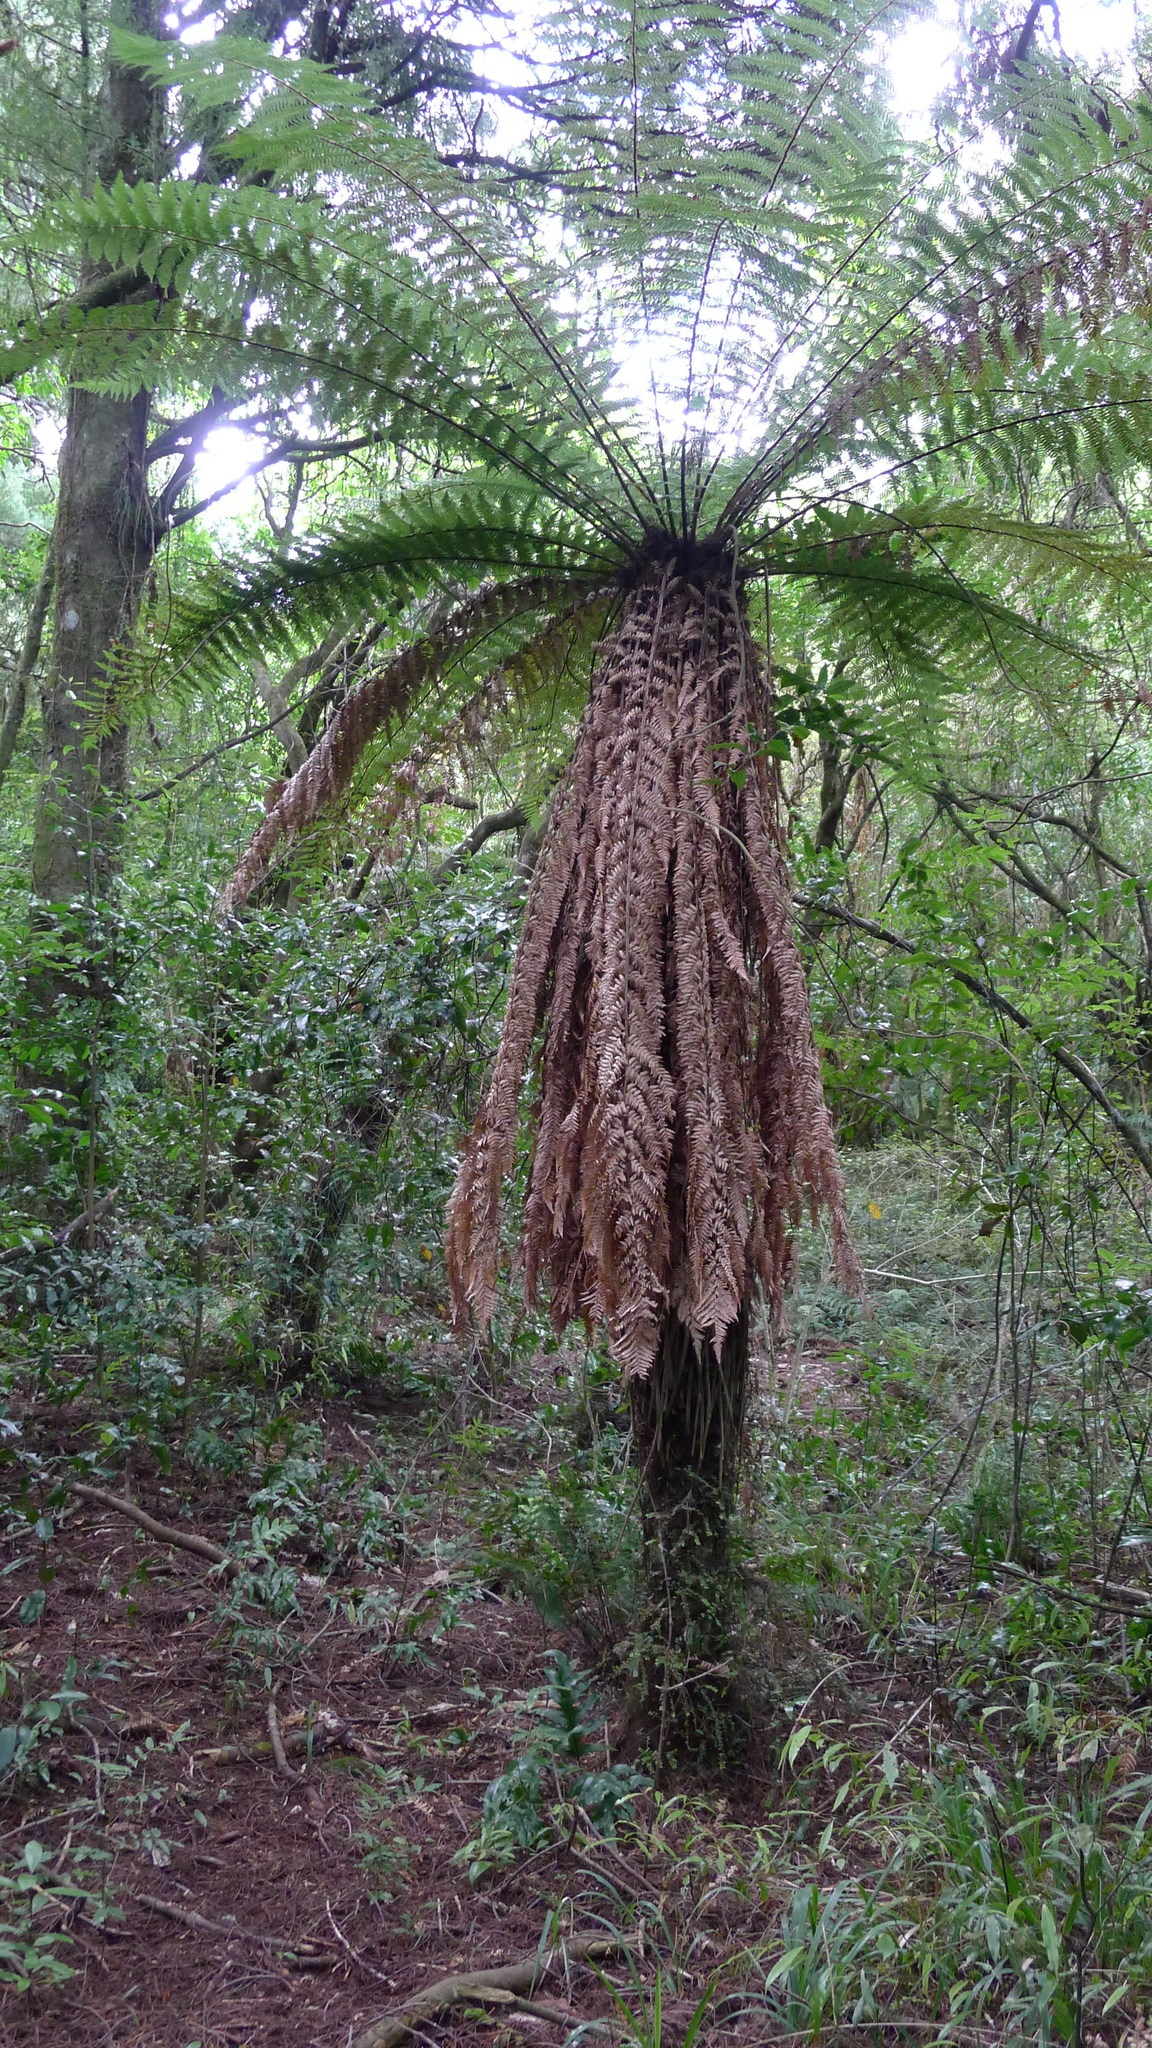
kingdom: Plantae
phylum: Tracheophyta
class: Polypodiopsida
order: Cyatheales
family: Dicksoniaceae
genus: Dicksonia
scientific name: Dicksonia fibrosa
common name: Golden tree fern
